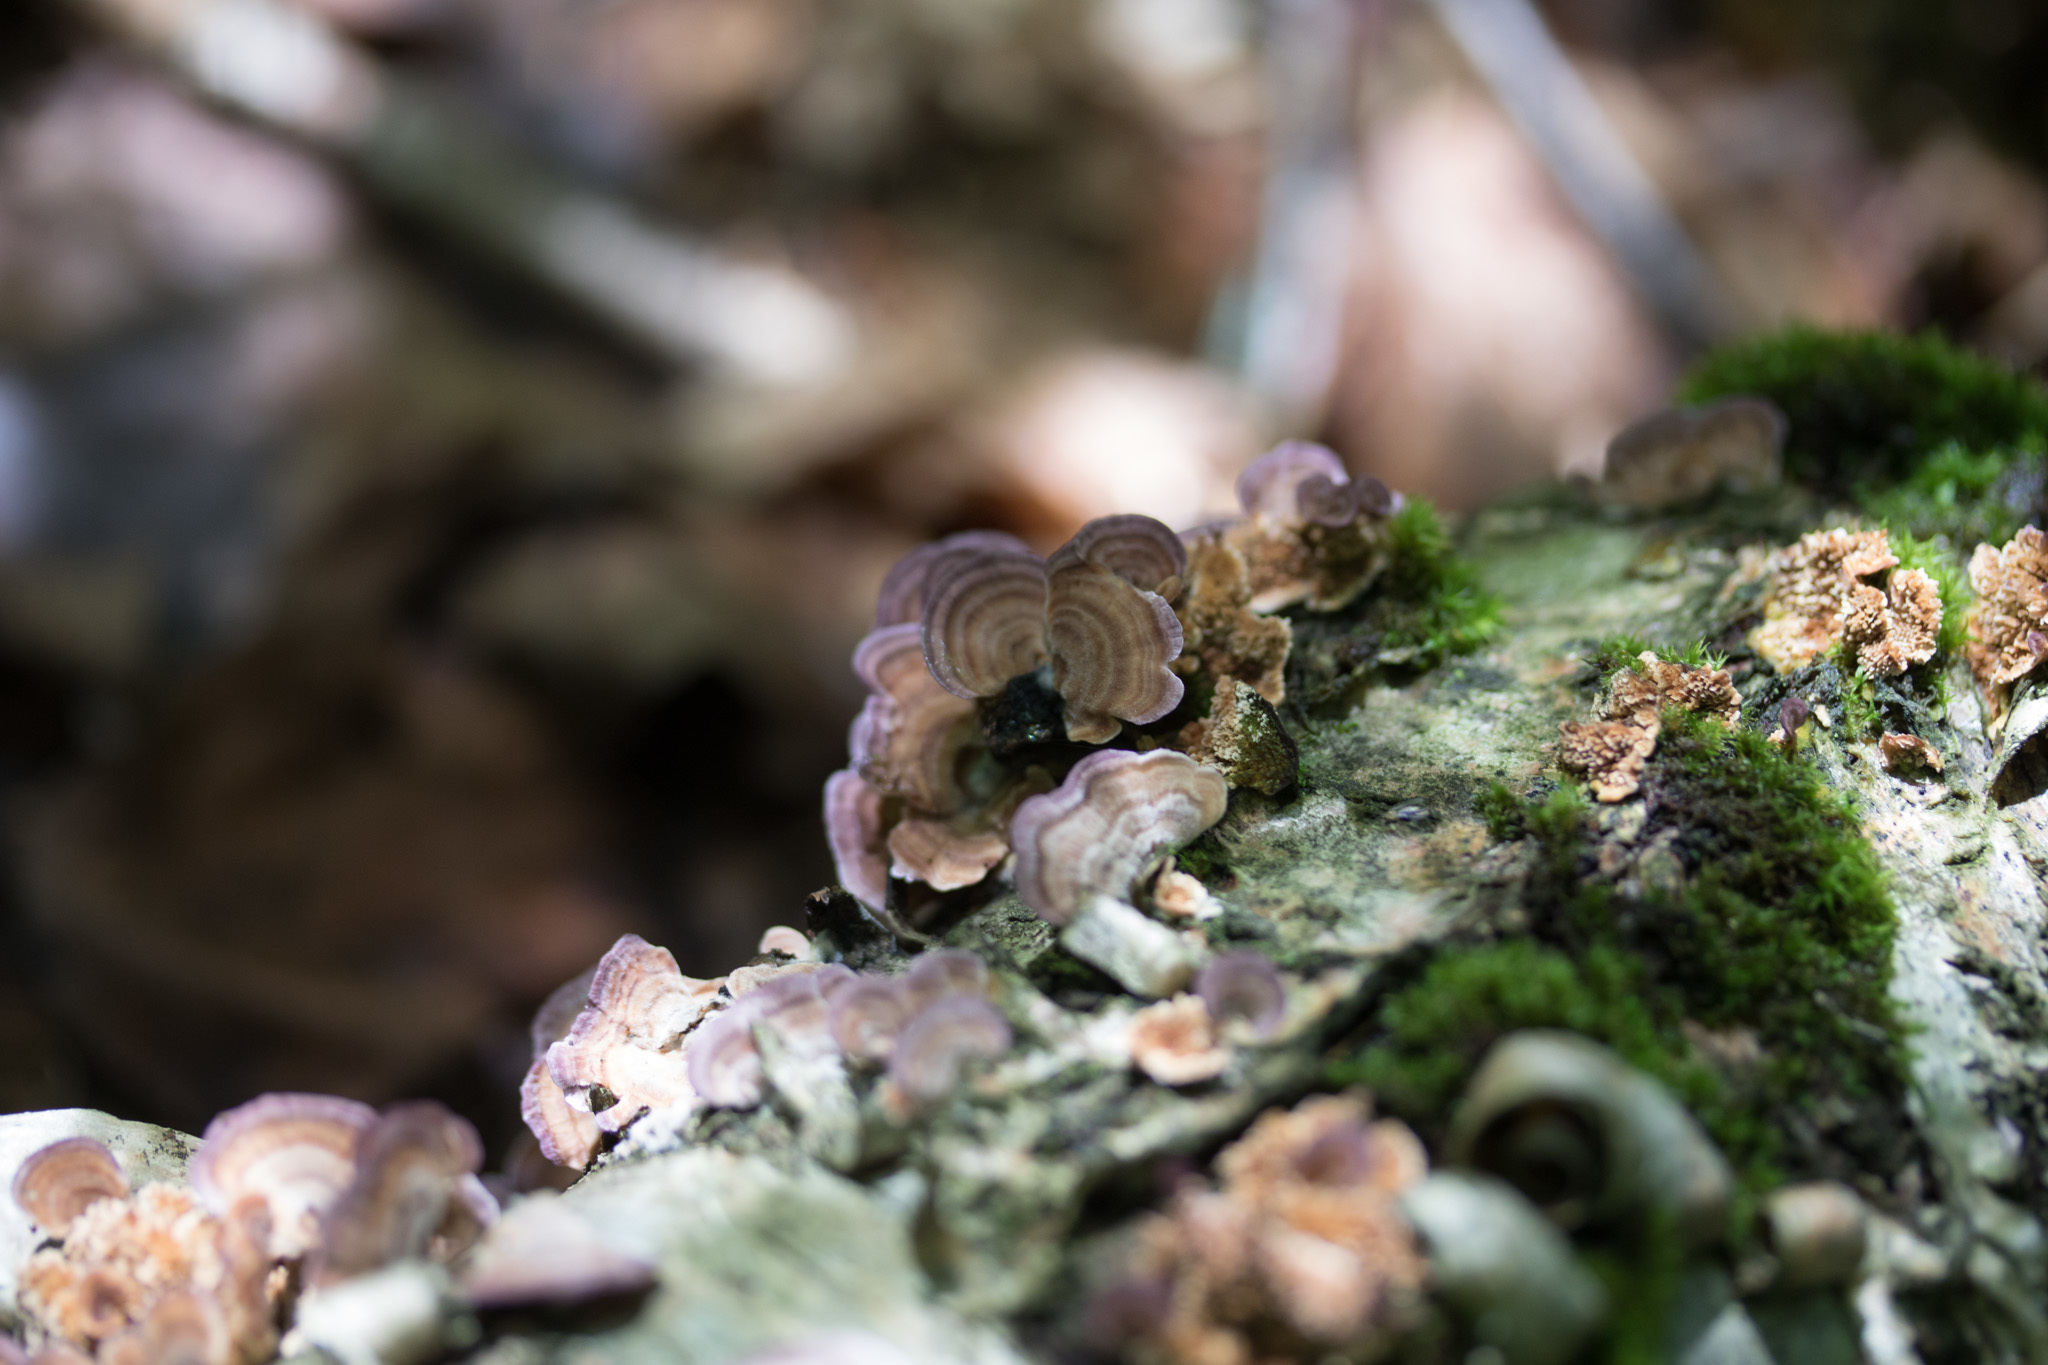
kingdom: Fungi
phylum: Basidiomycota
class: Agaricomycetes
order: Hymenochaetales
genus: Trichaptum
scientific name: Trichaptum biforme
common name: Violet-toothed polypore
